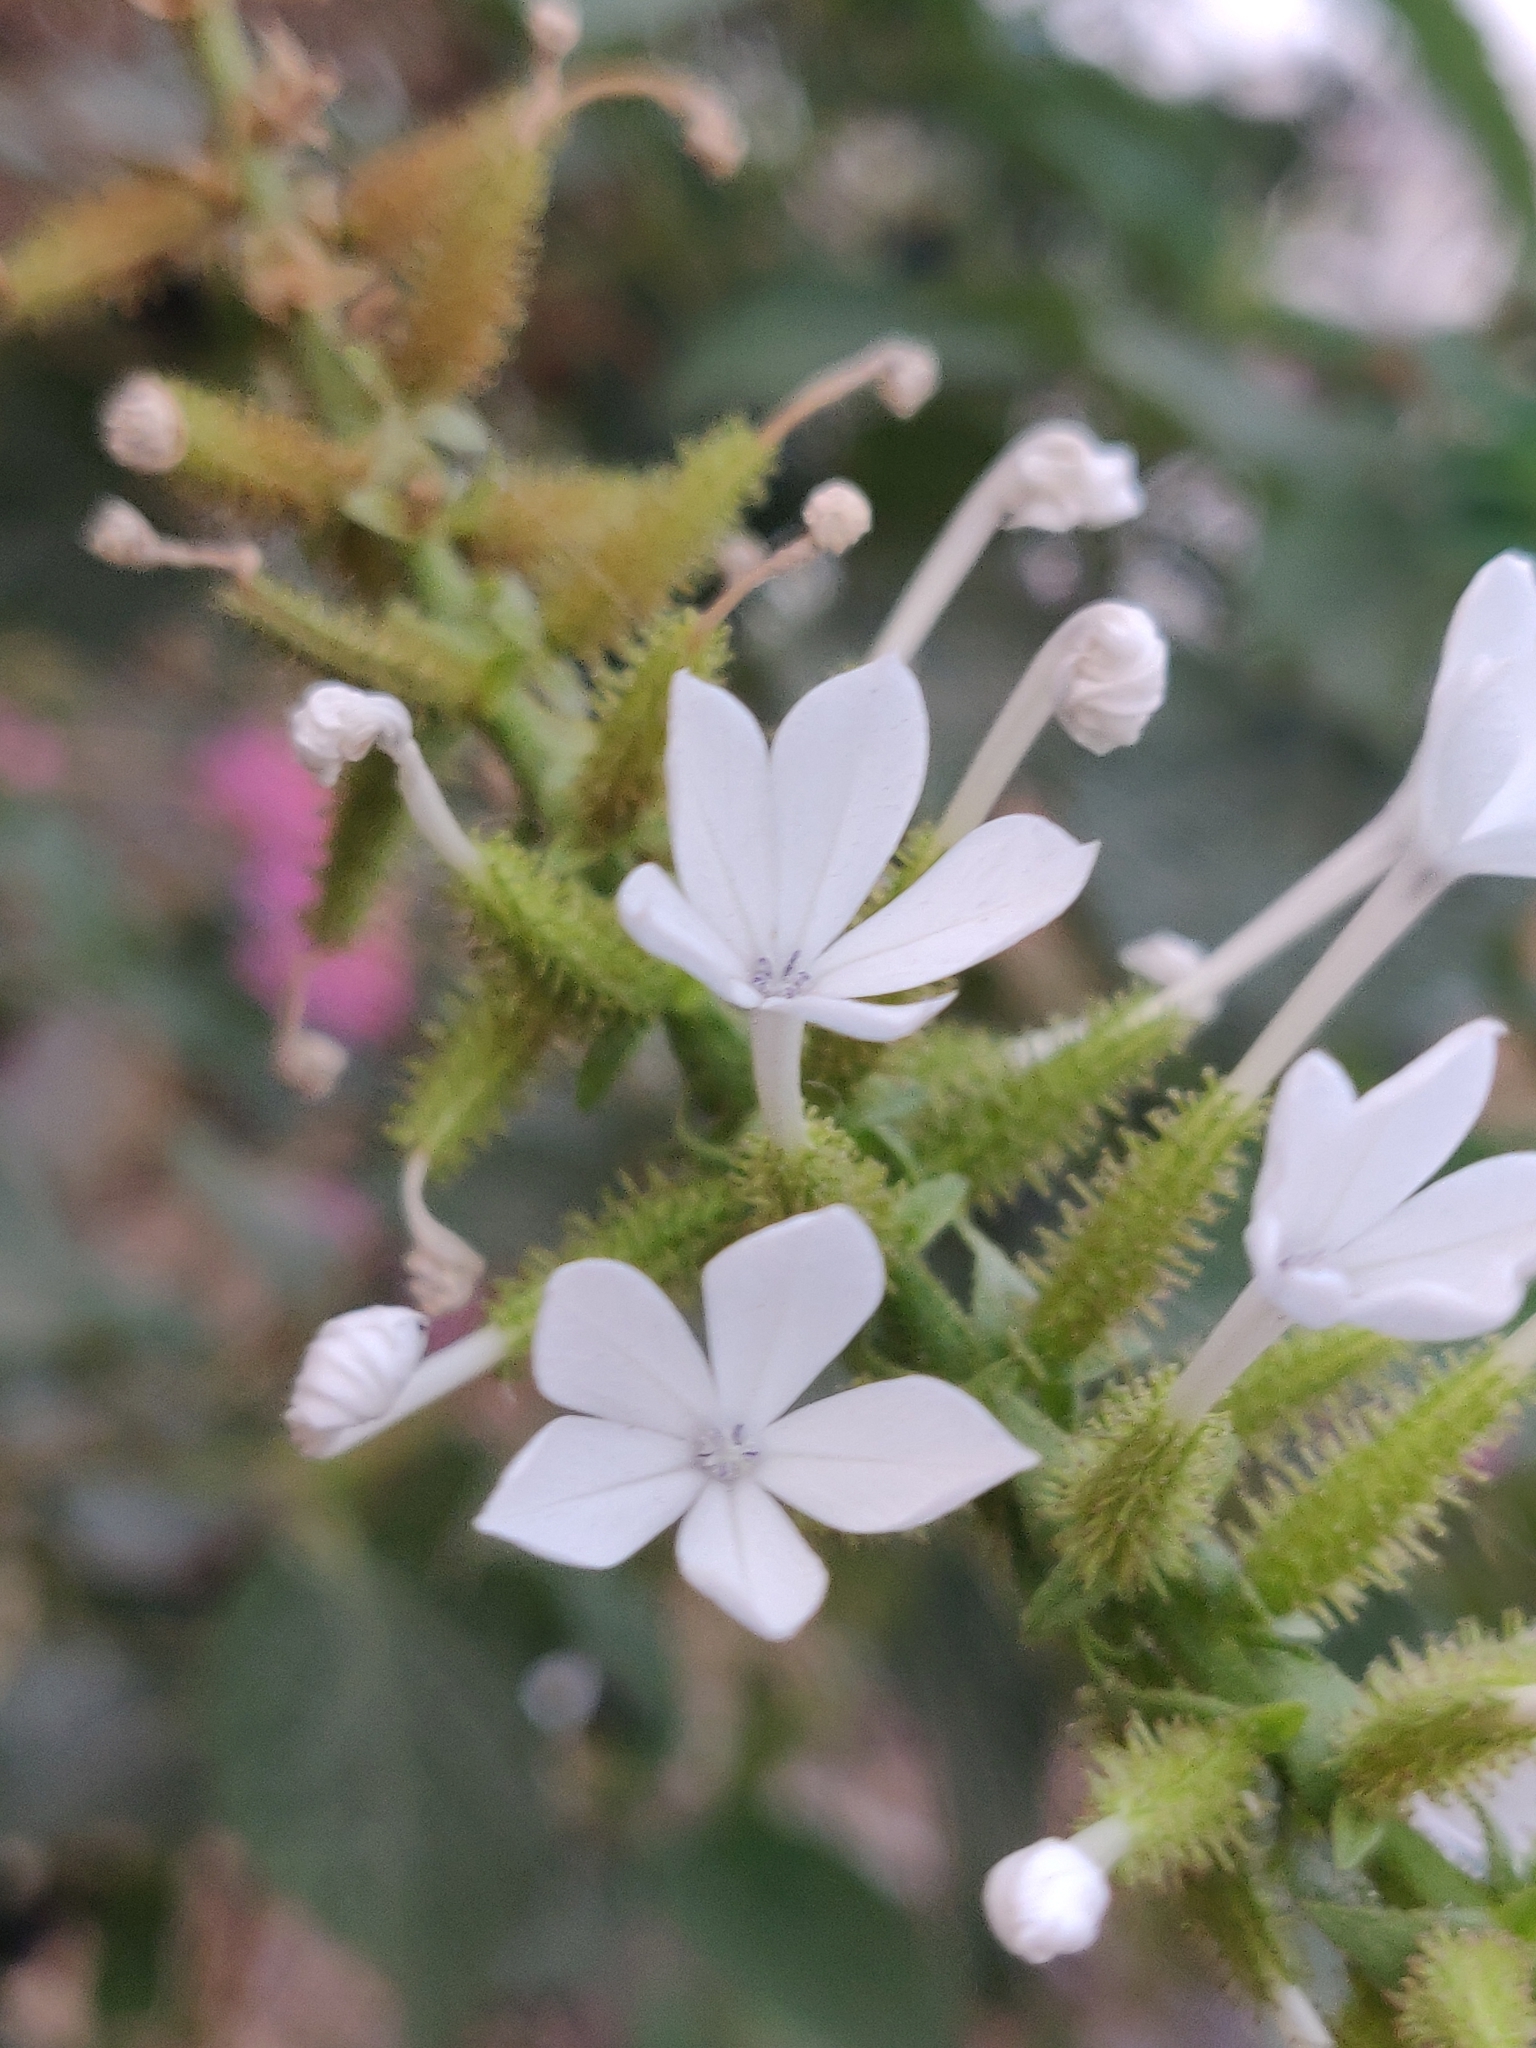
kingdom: Plantae
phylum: Tracheophyta
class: Magnoliopsida
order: Caryophyllales
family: Plumbaginaceae
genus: Plumbago
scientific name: Plumbago zeylanica
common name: Doctorbush
